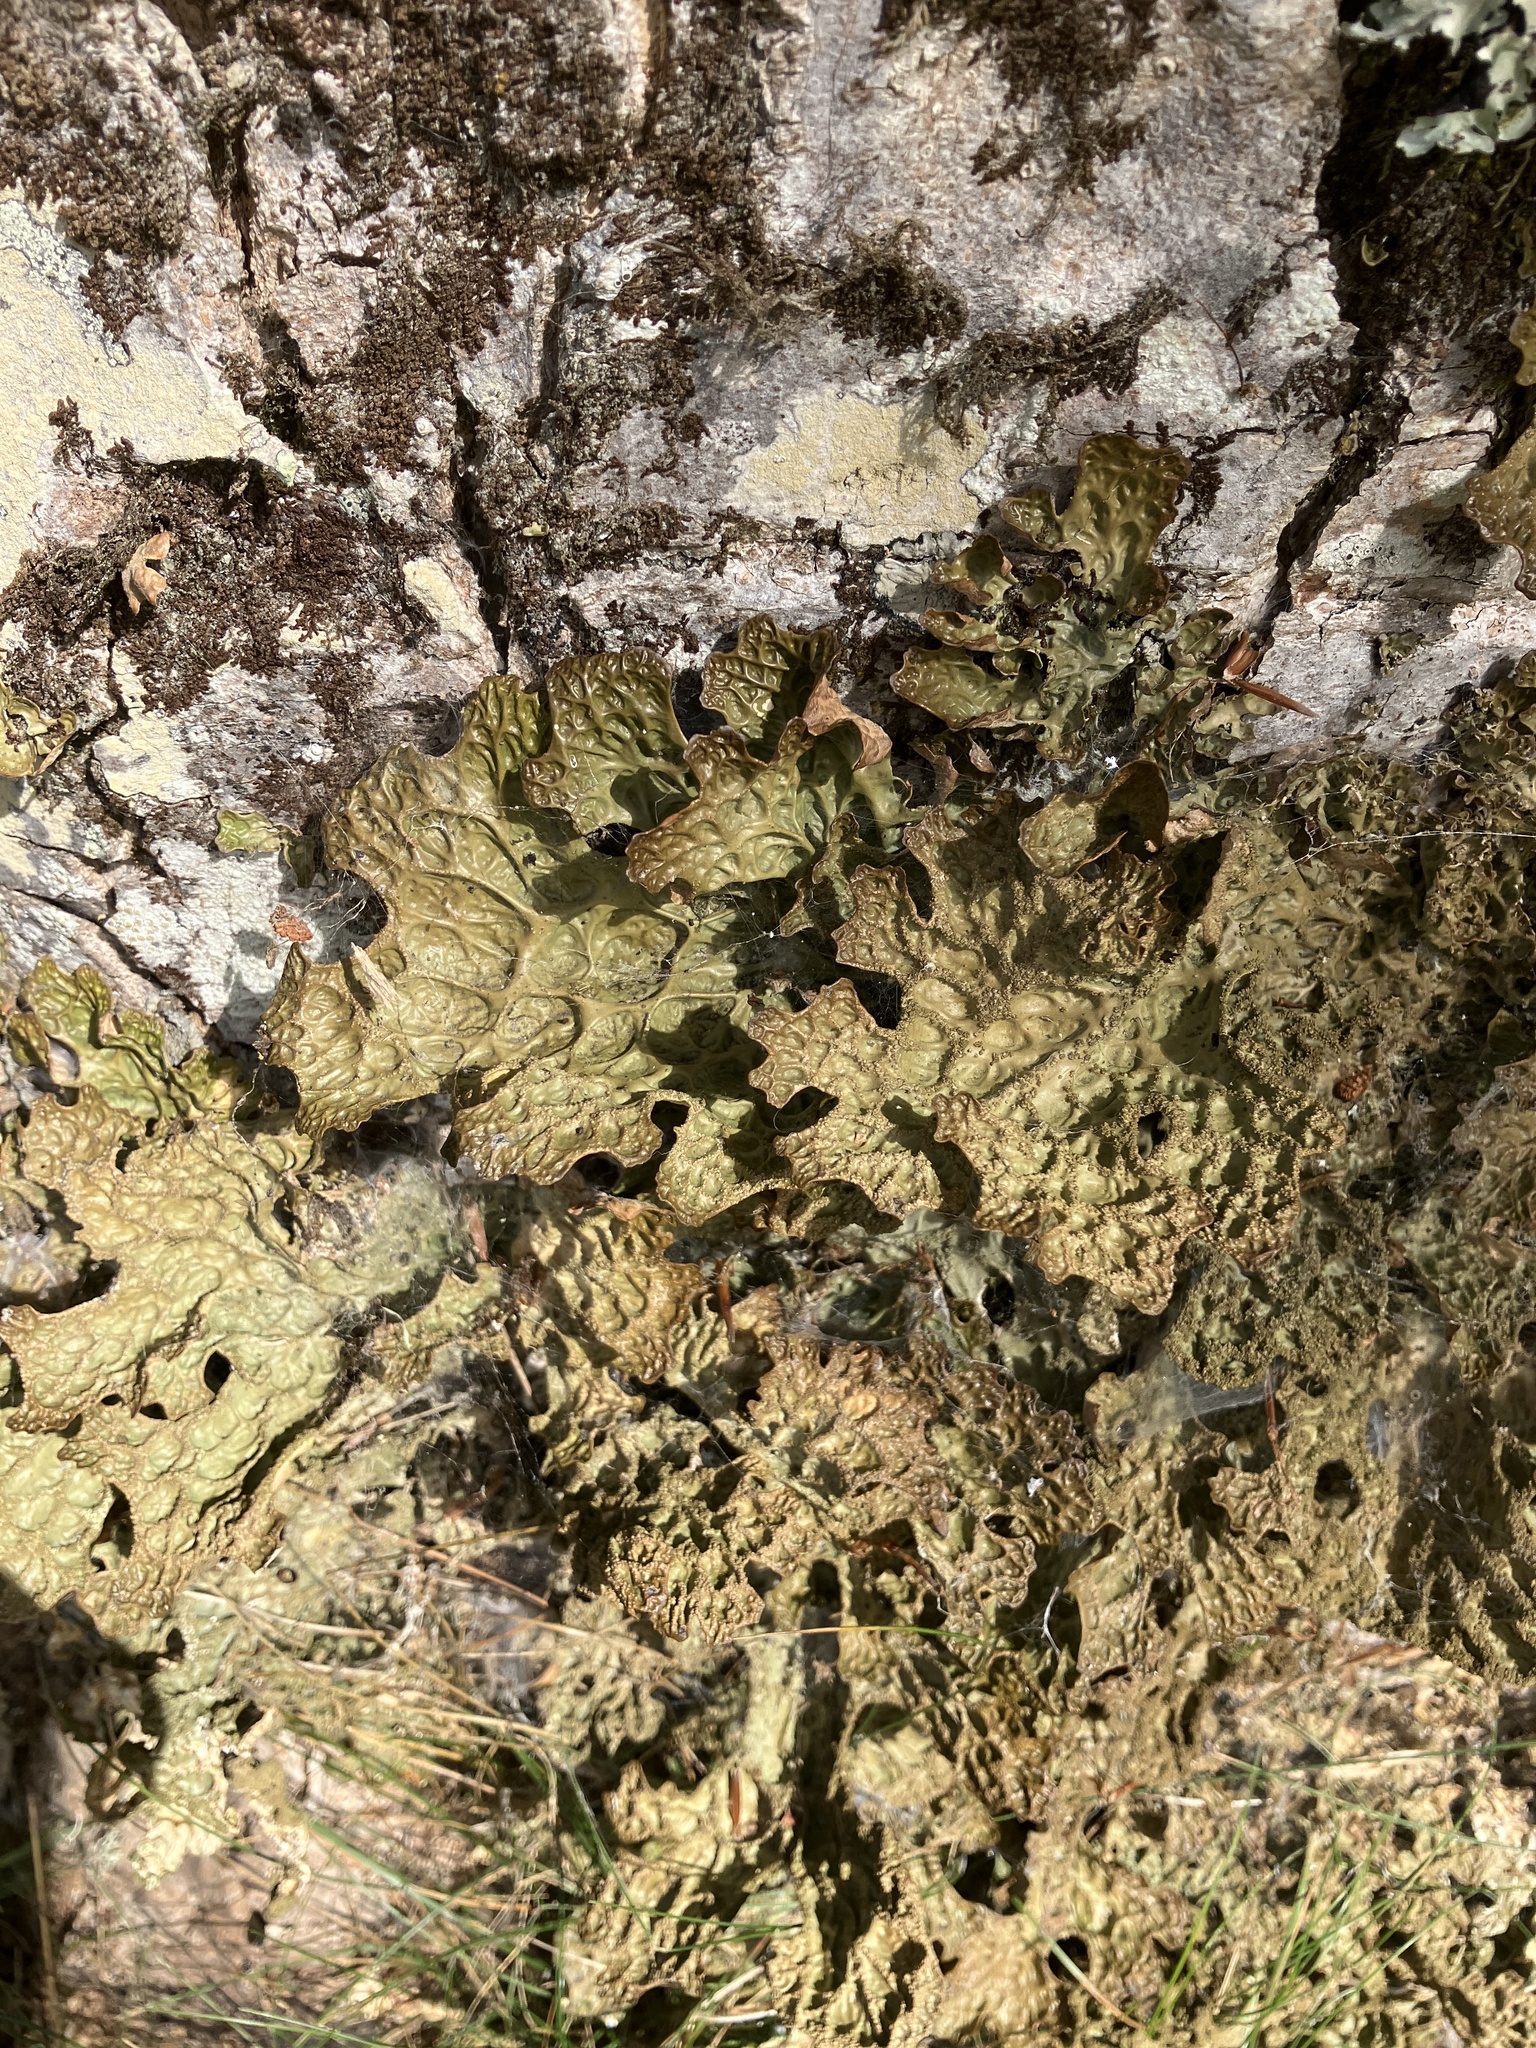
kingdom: Fungi
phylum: Ascomycota
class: Lecanoromycetes
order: Peltigerales
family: Lobariaceae
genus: Lobaria
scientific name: Lobaria pulmonaria
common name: Lungwort
